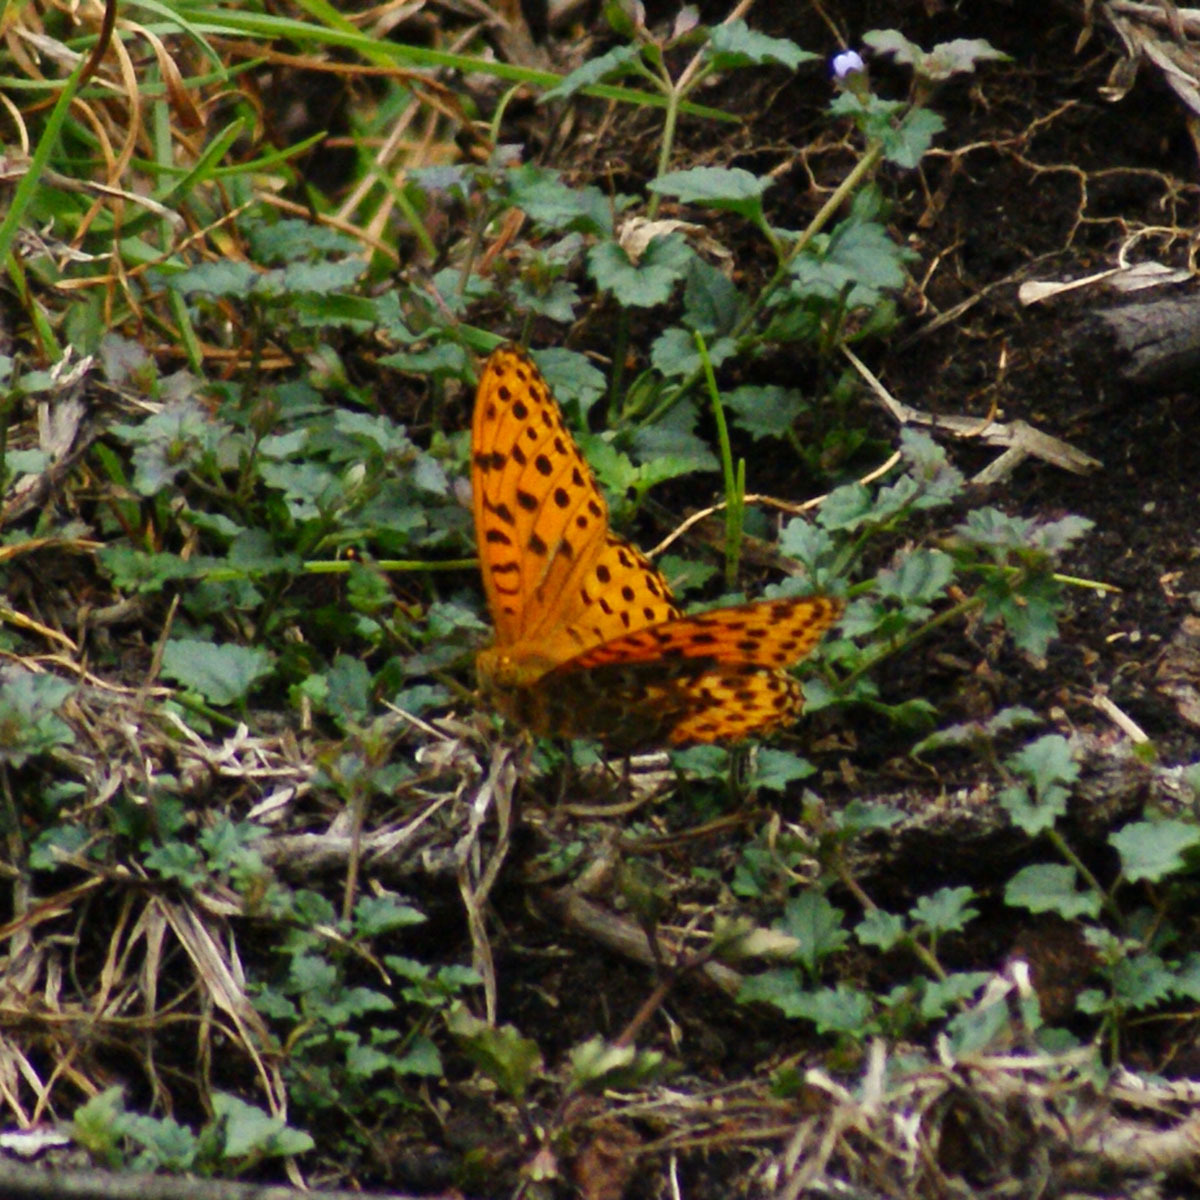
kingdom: Animalia
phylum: Arthropoda
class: Insecta
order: Lepidoptera
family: Nymphalidae
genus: Argyreus
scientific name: Argyreus hyperbius
